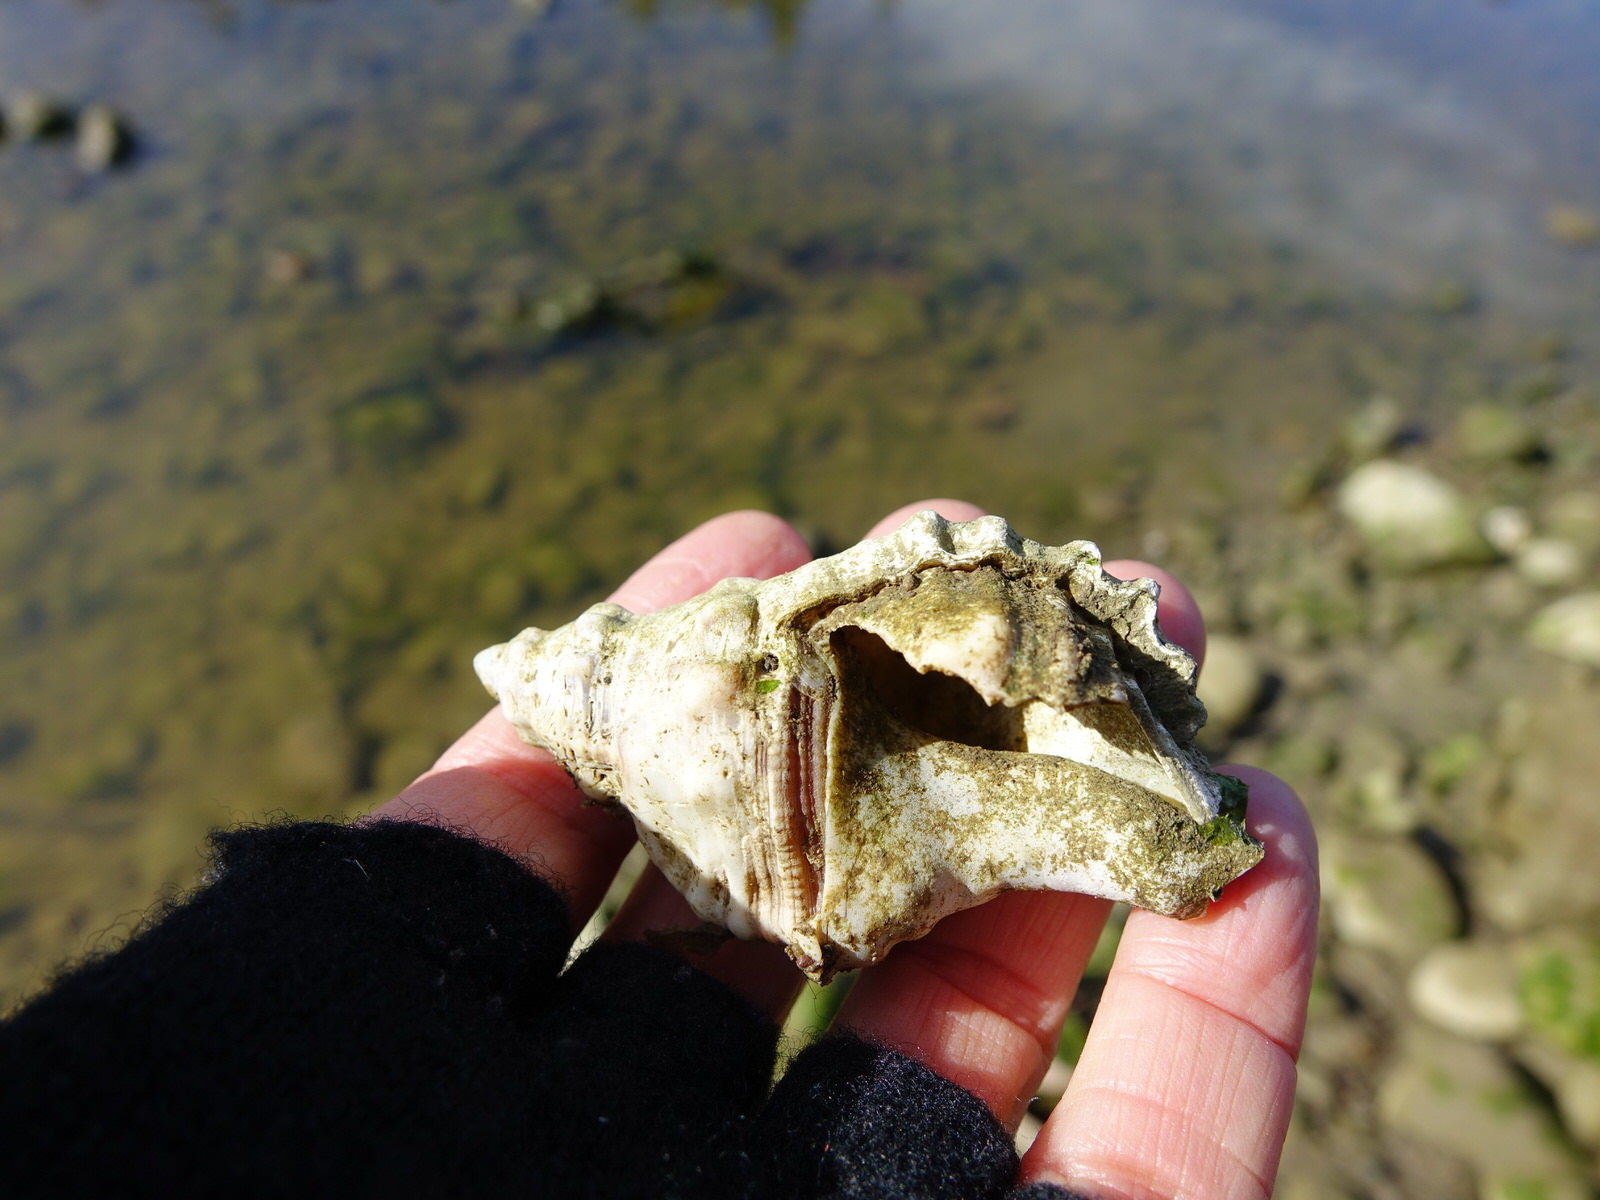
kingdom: Animalia
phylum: Mollusca
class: Gastropoda
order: Littorinimorpha
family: Cymatiidae
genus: Cabestana
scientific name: Cabestana spengleri
